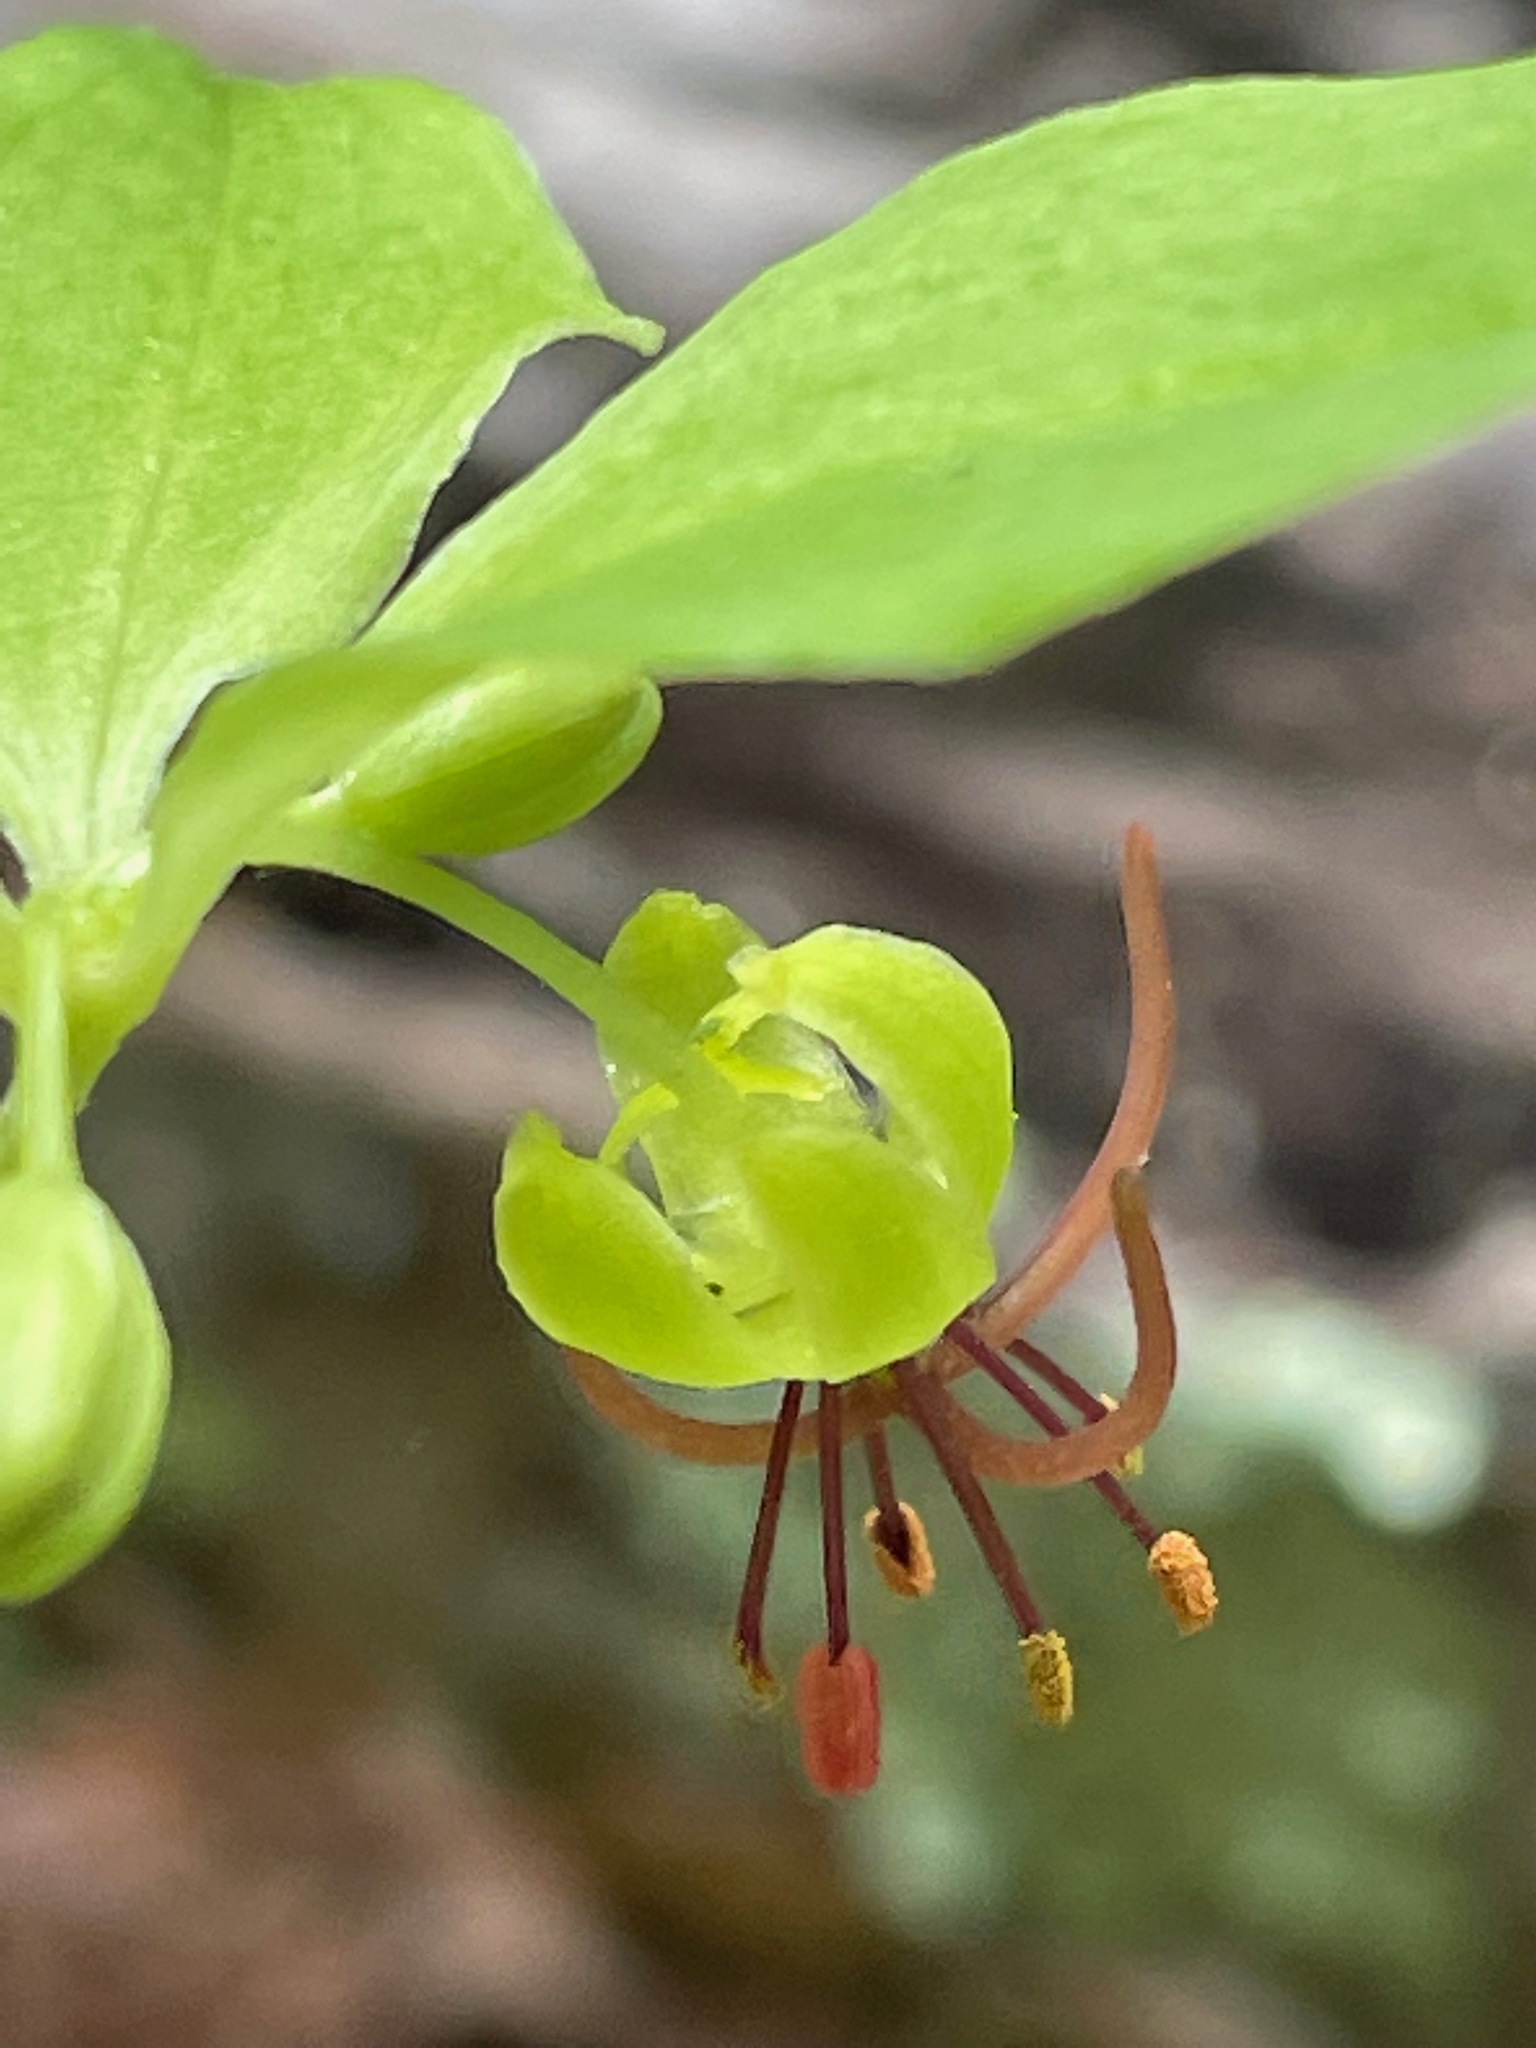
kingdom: Plantae
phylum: Tracheophyta
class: Liliopsida
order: Liliales
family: Liliaceae
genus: Medeola
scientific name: Medeola virginiana
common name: Indian cucumber-root
